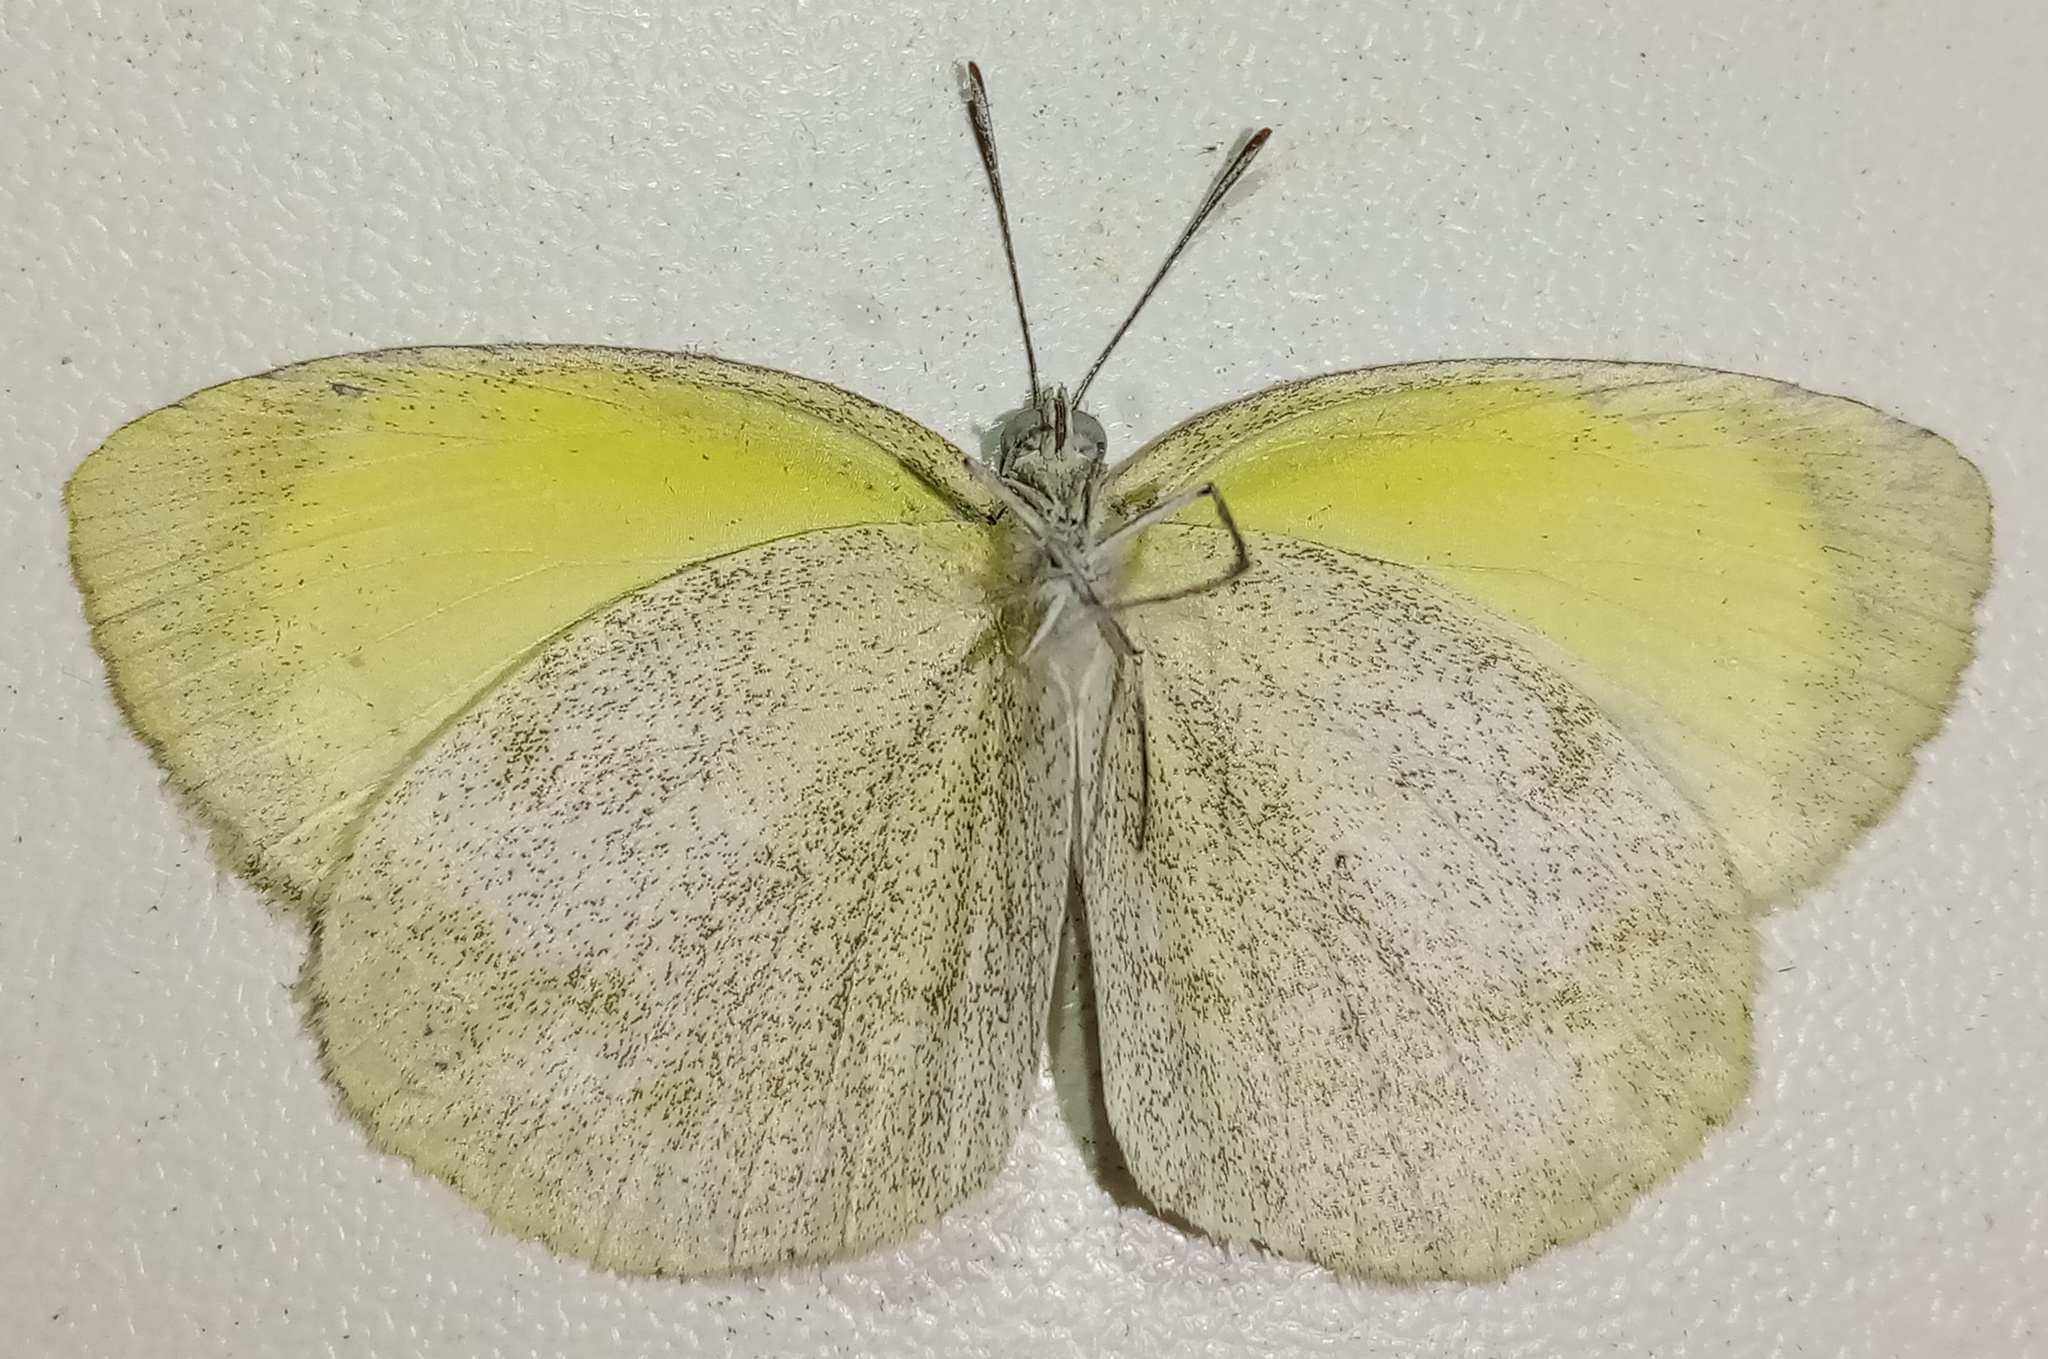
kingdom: Animalia
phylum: Arthropoda
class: Insecta
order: Lepidoptera
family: Pieridae
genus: Eurema
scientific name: Eurema daira
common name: Barred sulphur
